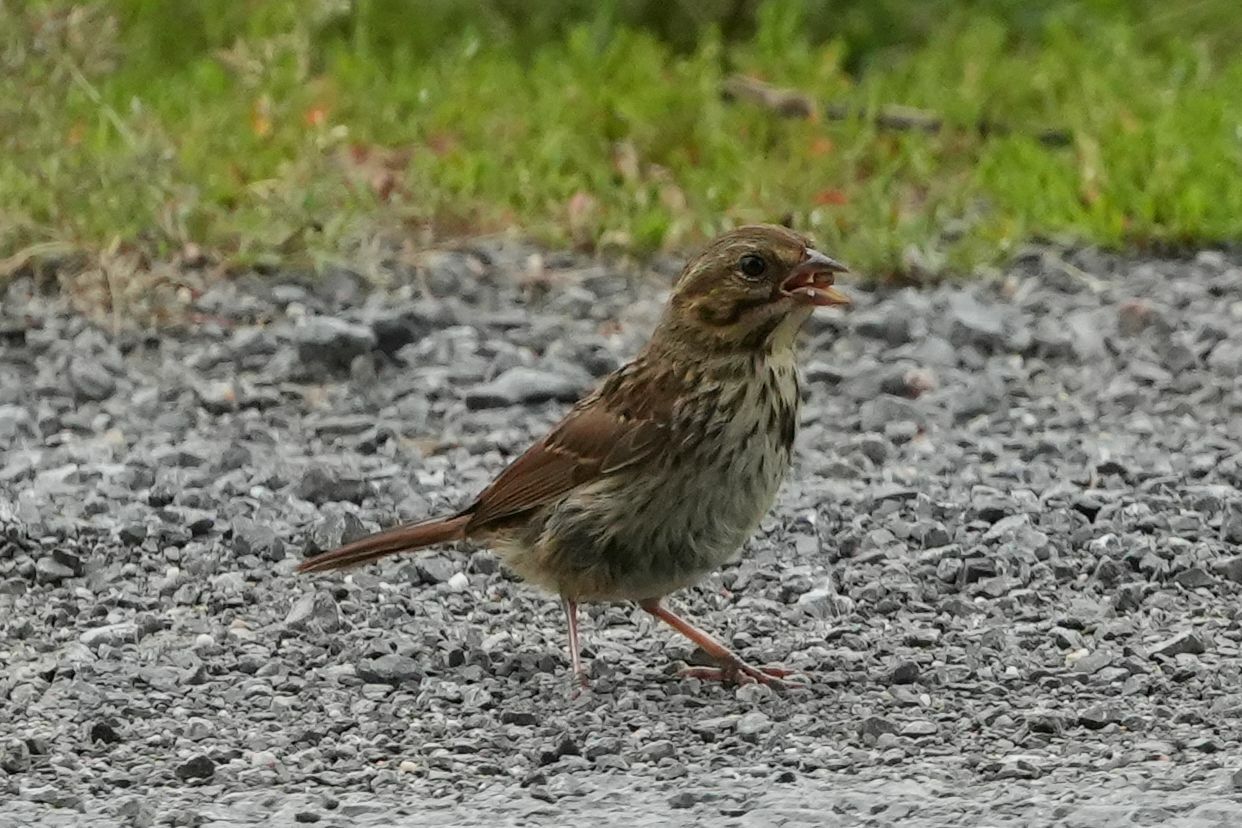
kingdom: Animalia
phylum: Chordata
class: Aves
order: Passeriformes
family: Passerellidae
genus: Melospiza
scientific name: Melospiza melodia
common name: Song sparrow
